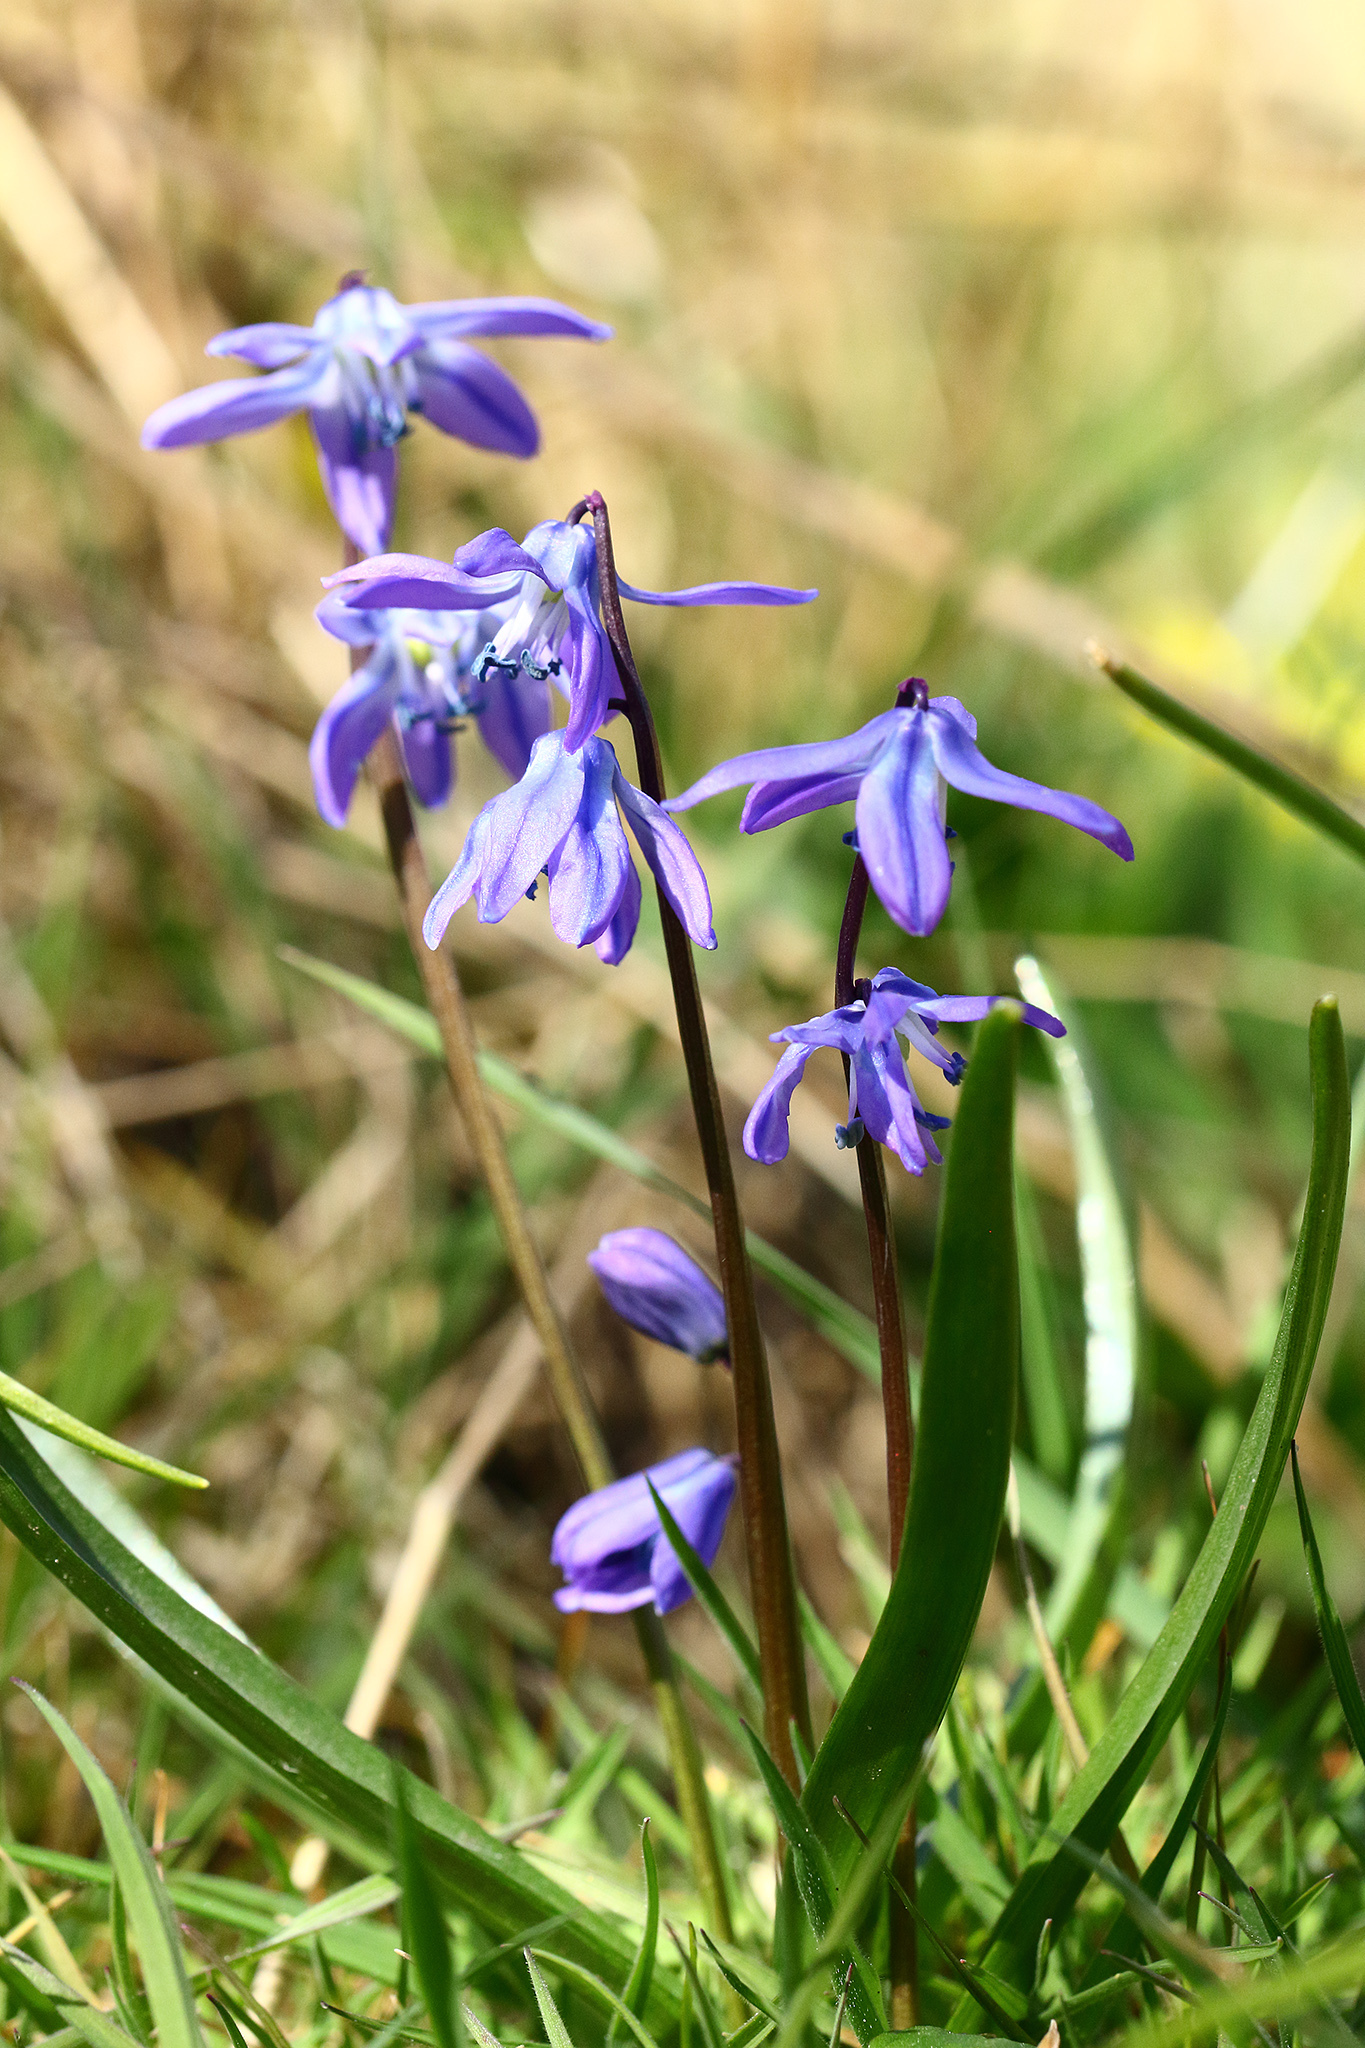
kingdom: Plantae
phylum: Tracheophyta
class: Liliopsida
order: Asparagales
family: Asparagaceae
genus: Scilla
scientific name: Scilla siberica
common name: Siberian squill
